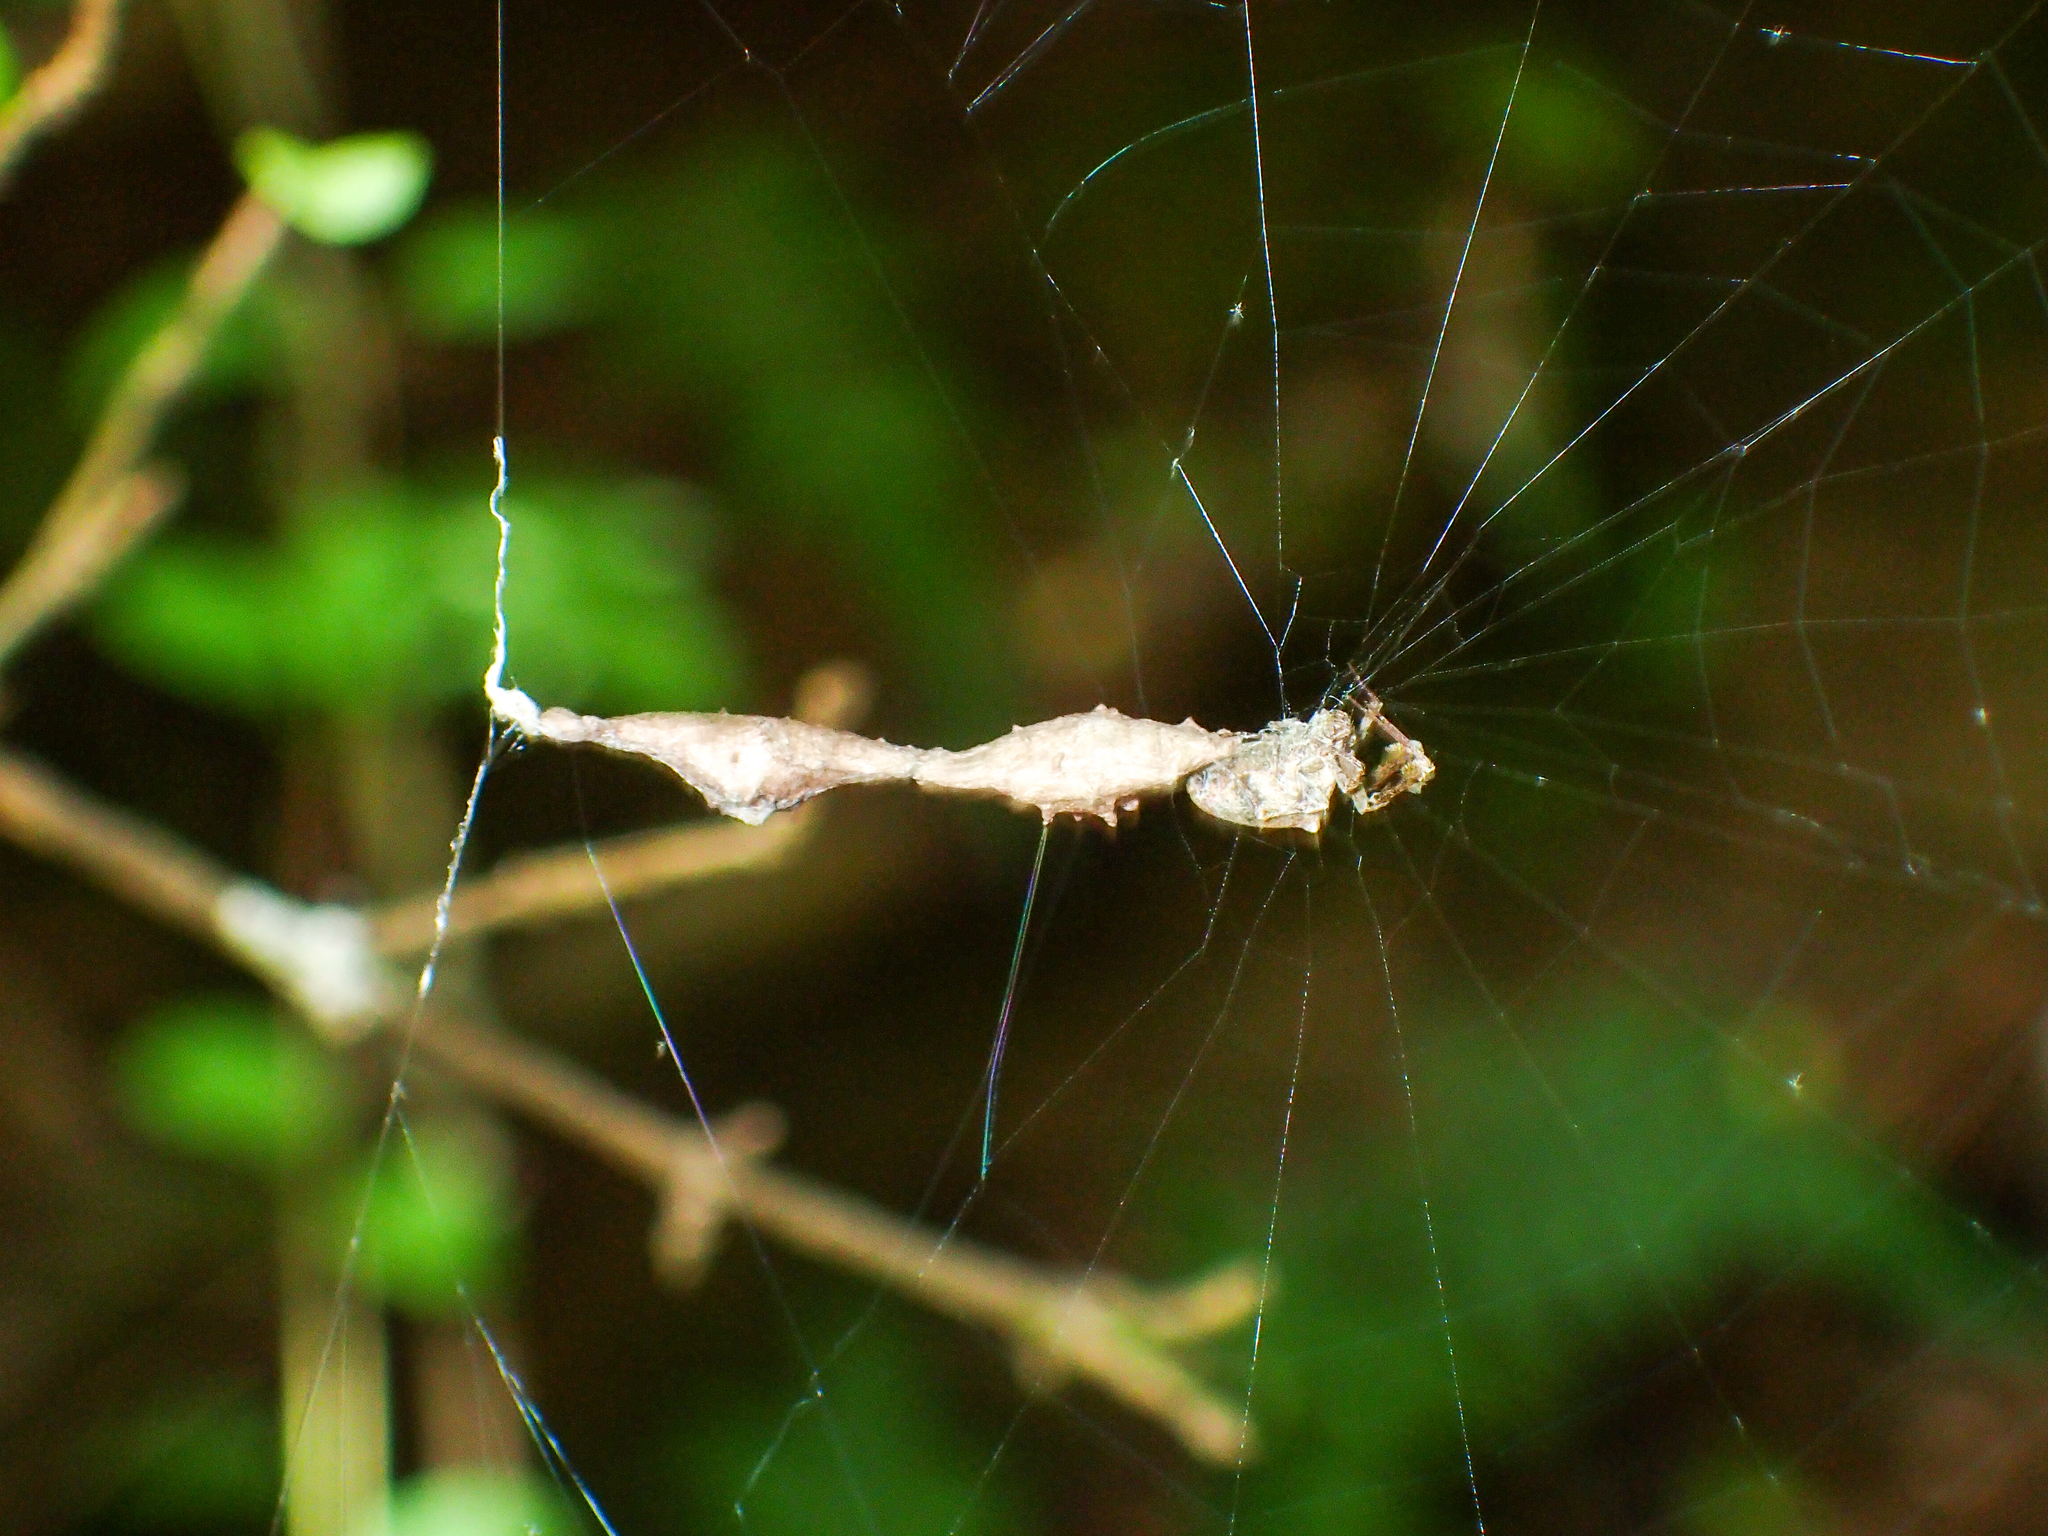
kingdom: Animalia
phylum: Arthropoda
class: Arachnida
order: Araneae
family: Uloboridae
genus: Uloborus
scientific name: Uloborus glomosus
